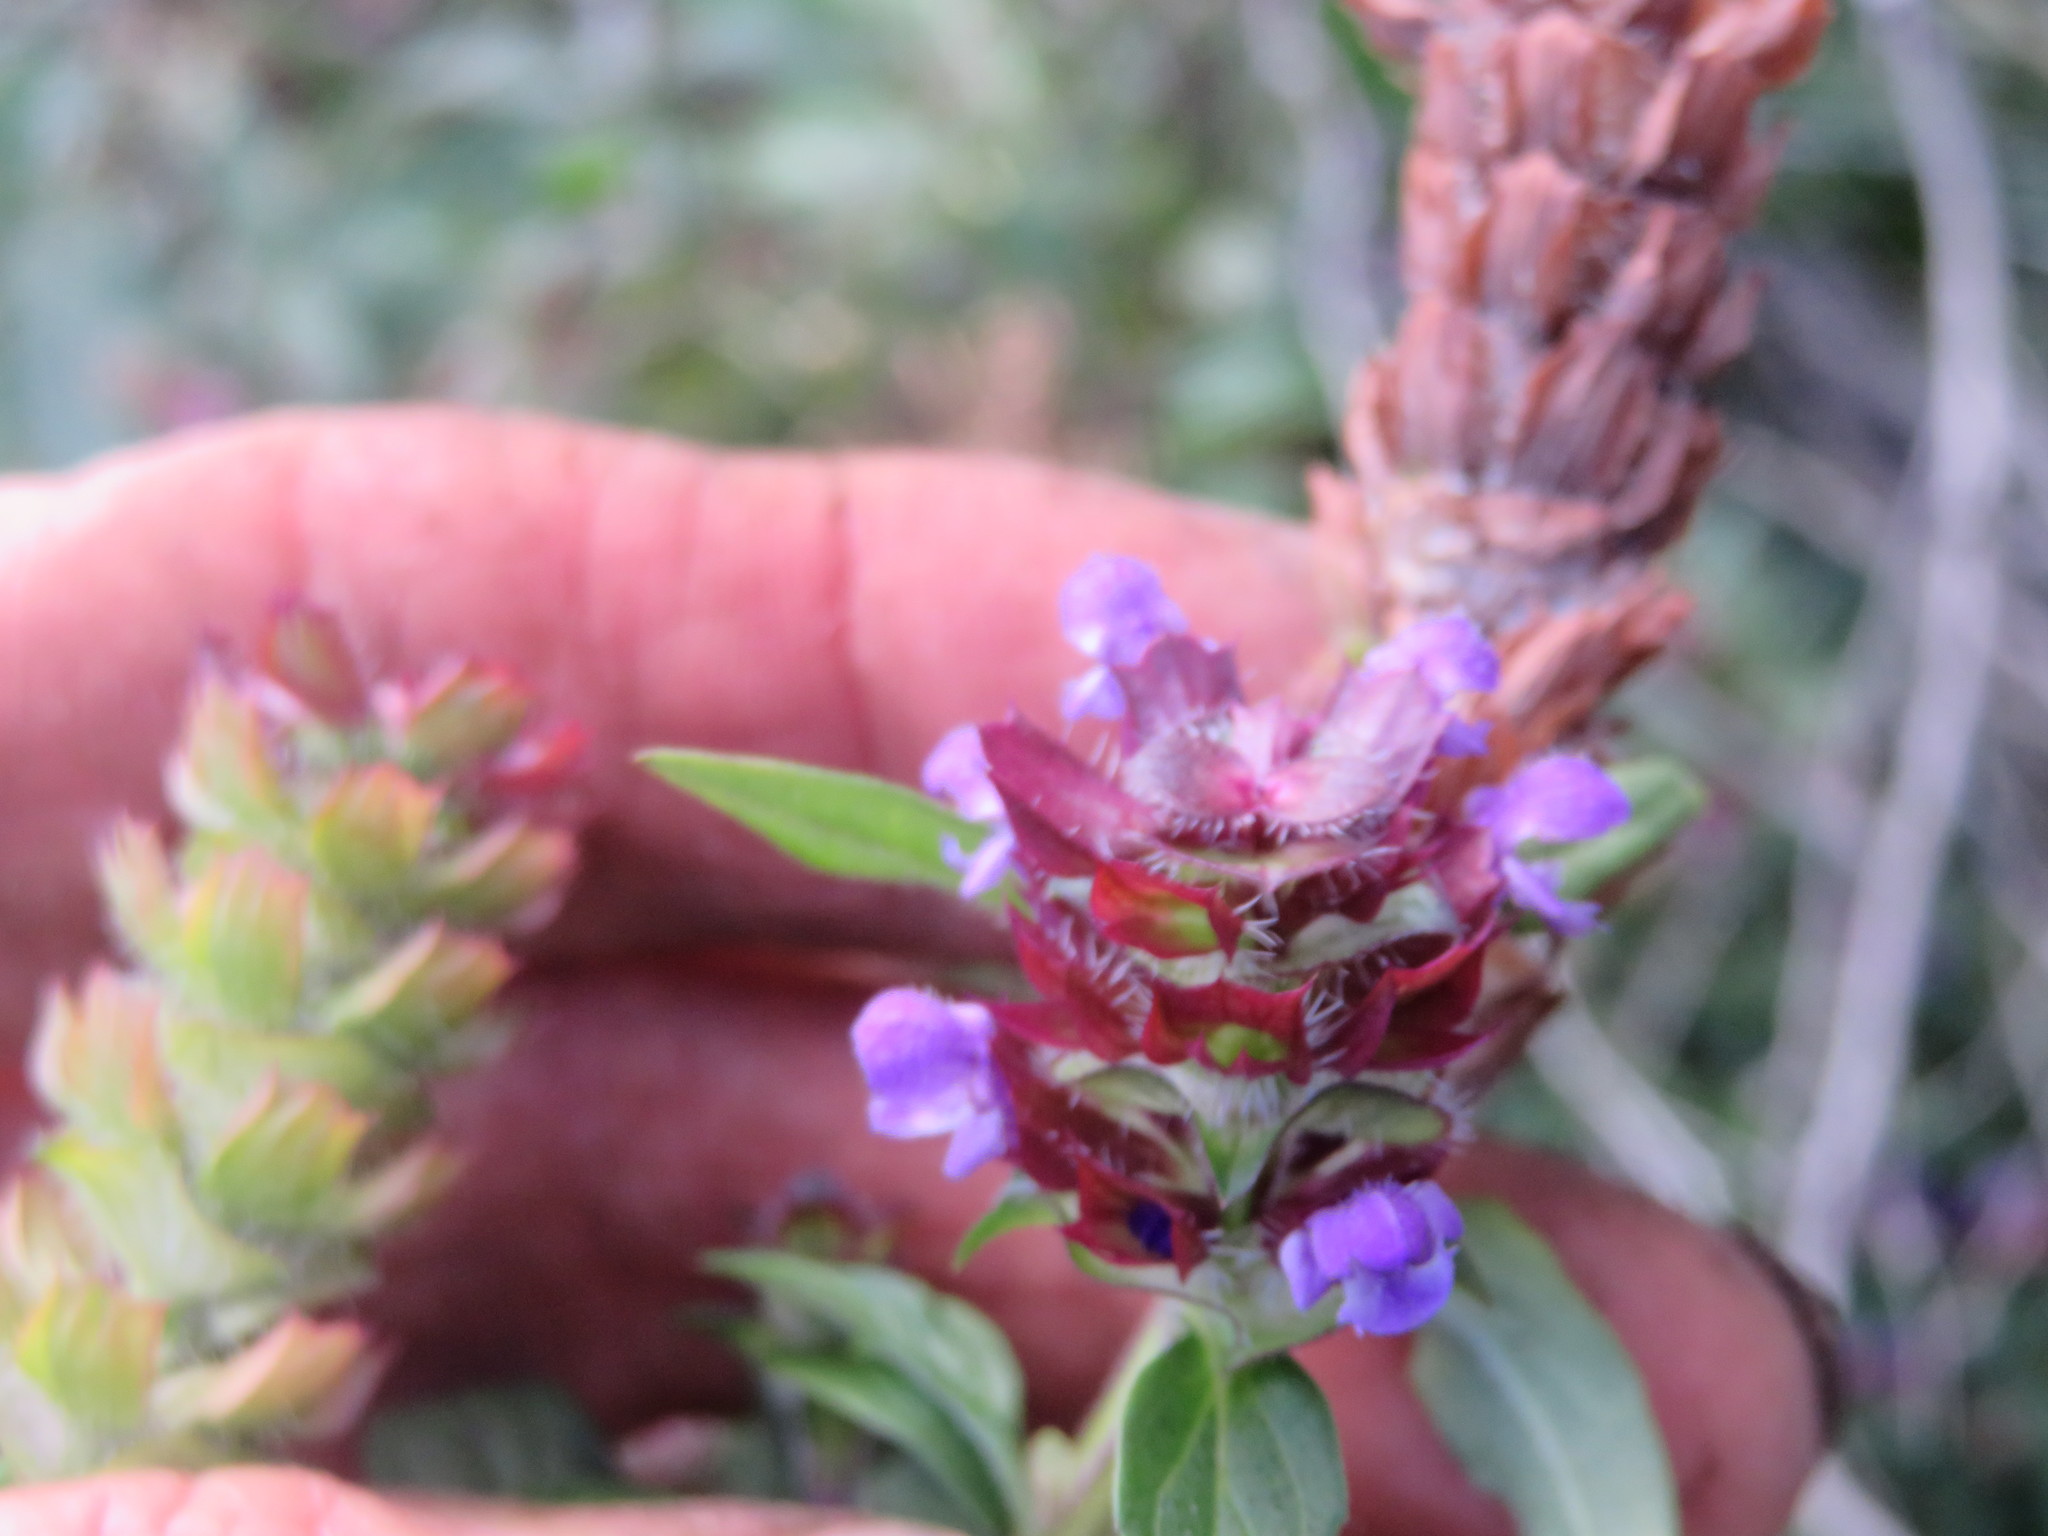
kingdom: Plantae
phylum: Tracheophyta
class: Magnoliopsida
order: Lamiales
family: Lamiaceae
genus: Prunella
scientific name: Prunella vulgaris
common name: Heal-all
